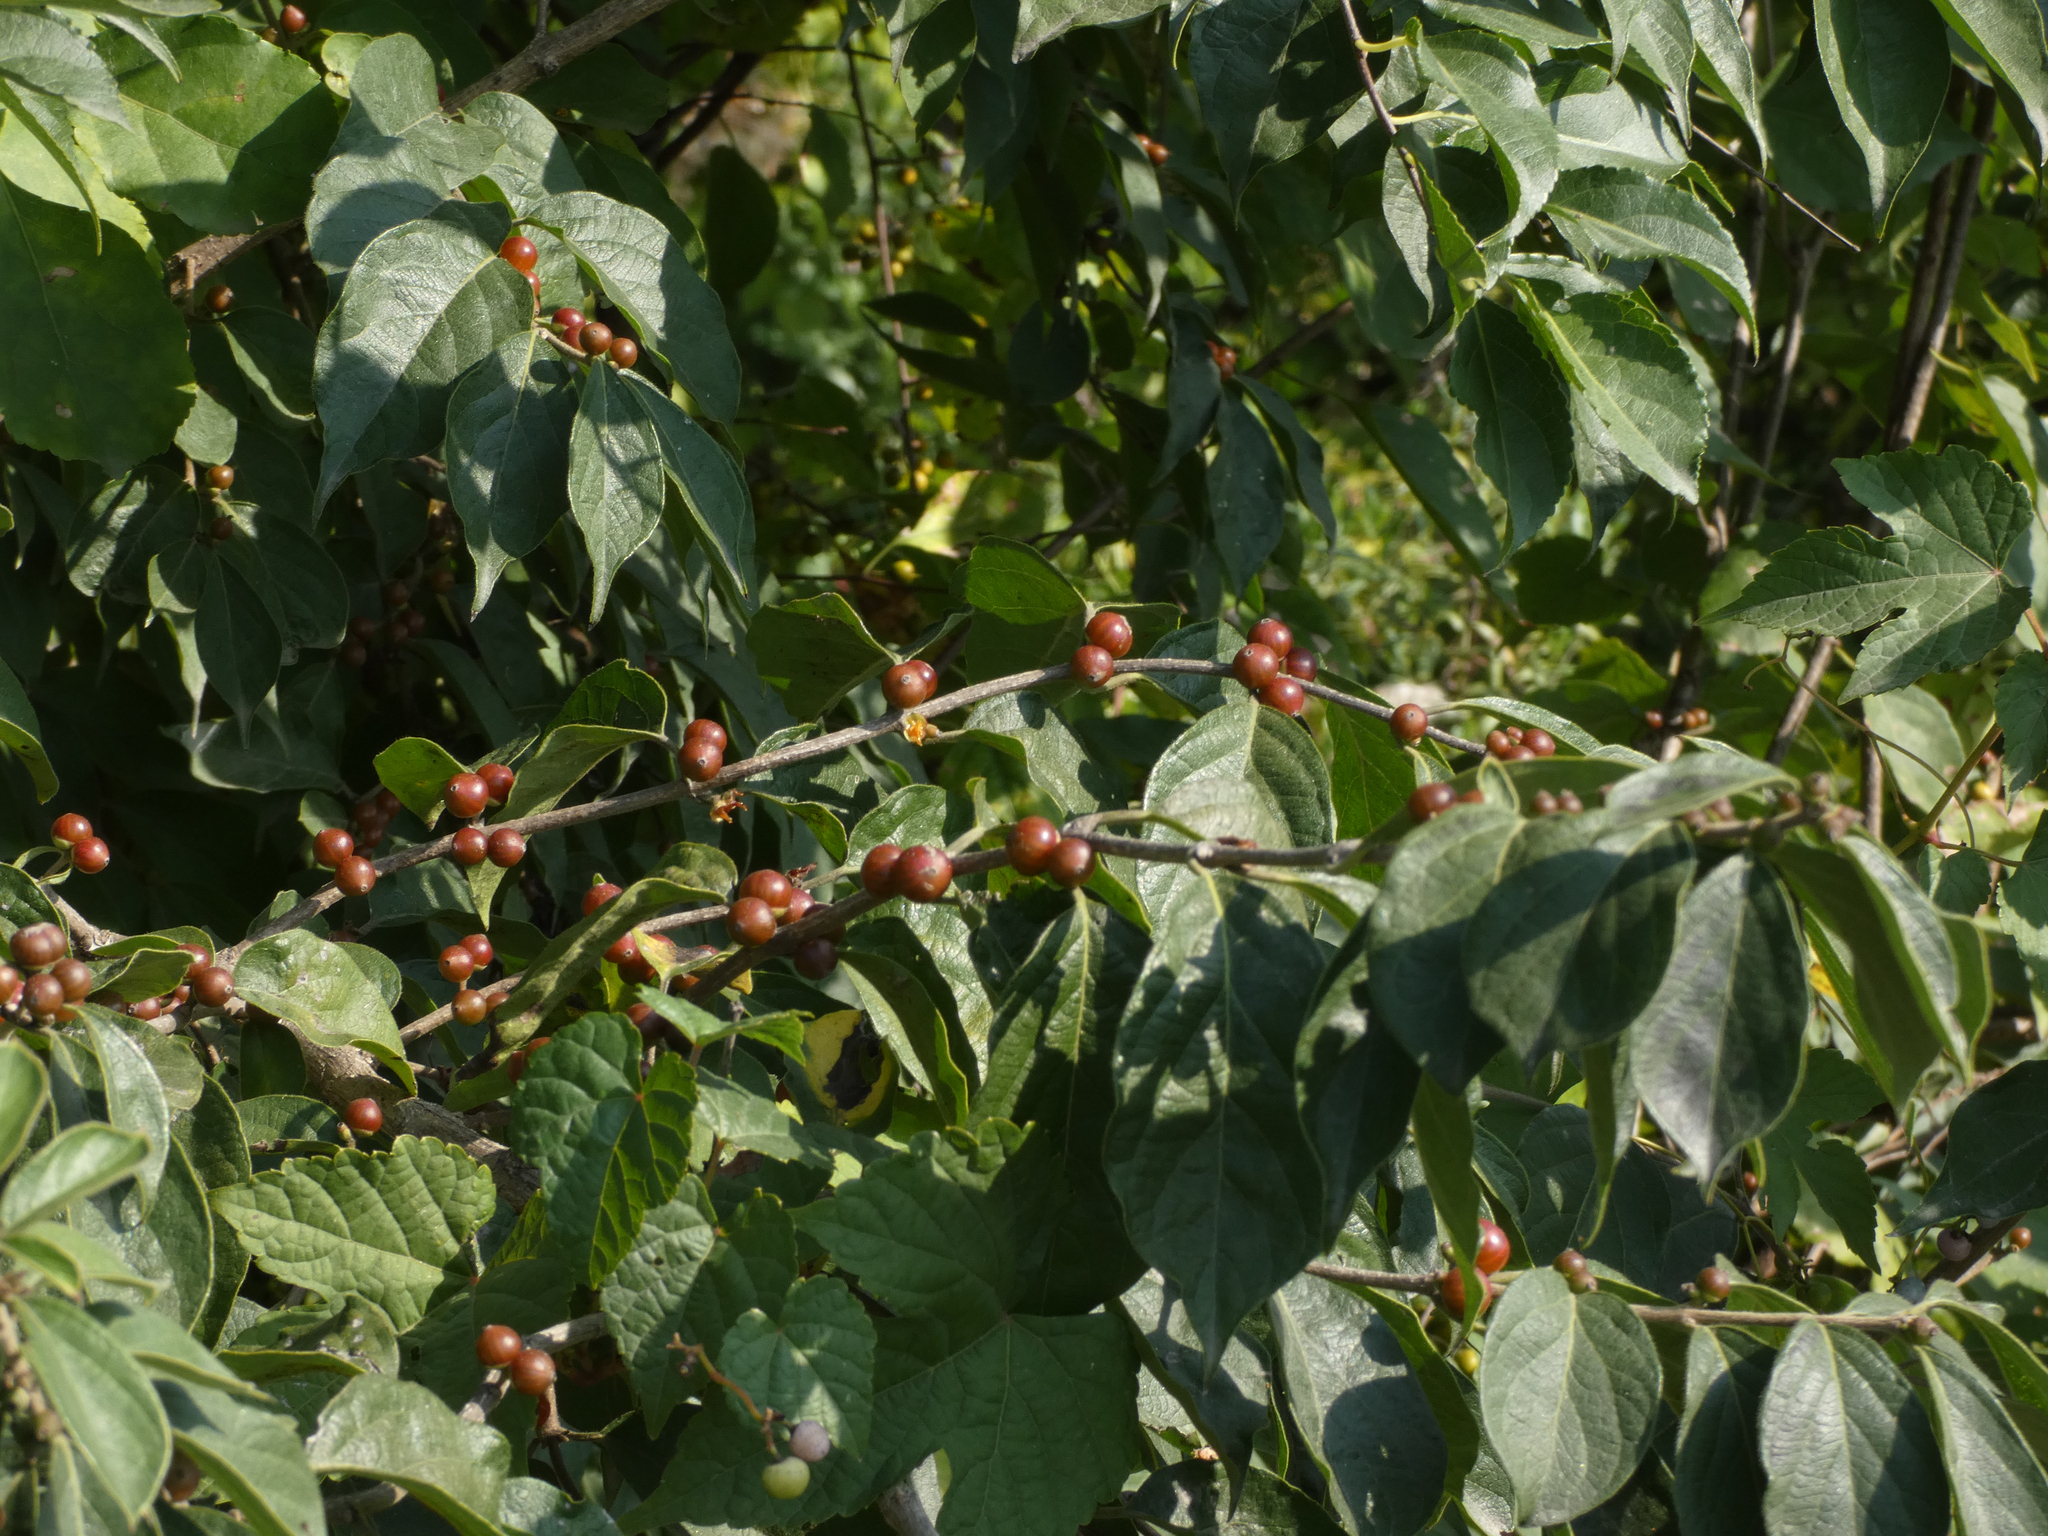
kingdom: Plantae
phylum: Tracheophyta
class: Magnoliopsida
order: Dipsacales
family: Caprifoliaceae
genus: Lonicera
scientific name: Lonicera maackii
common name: Amur honeysuckle
